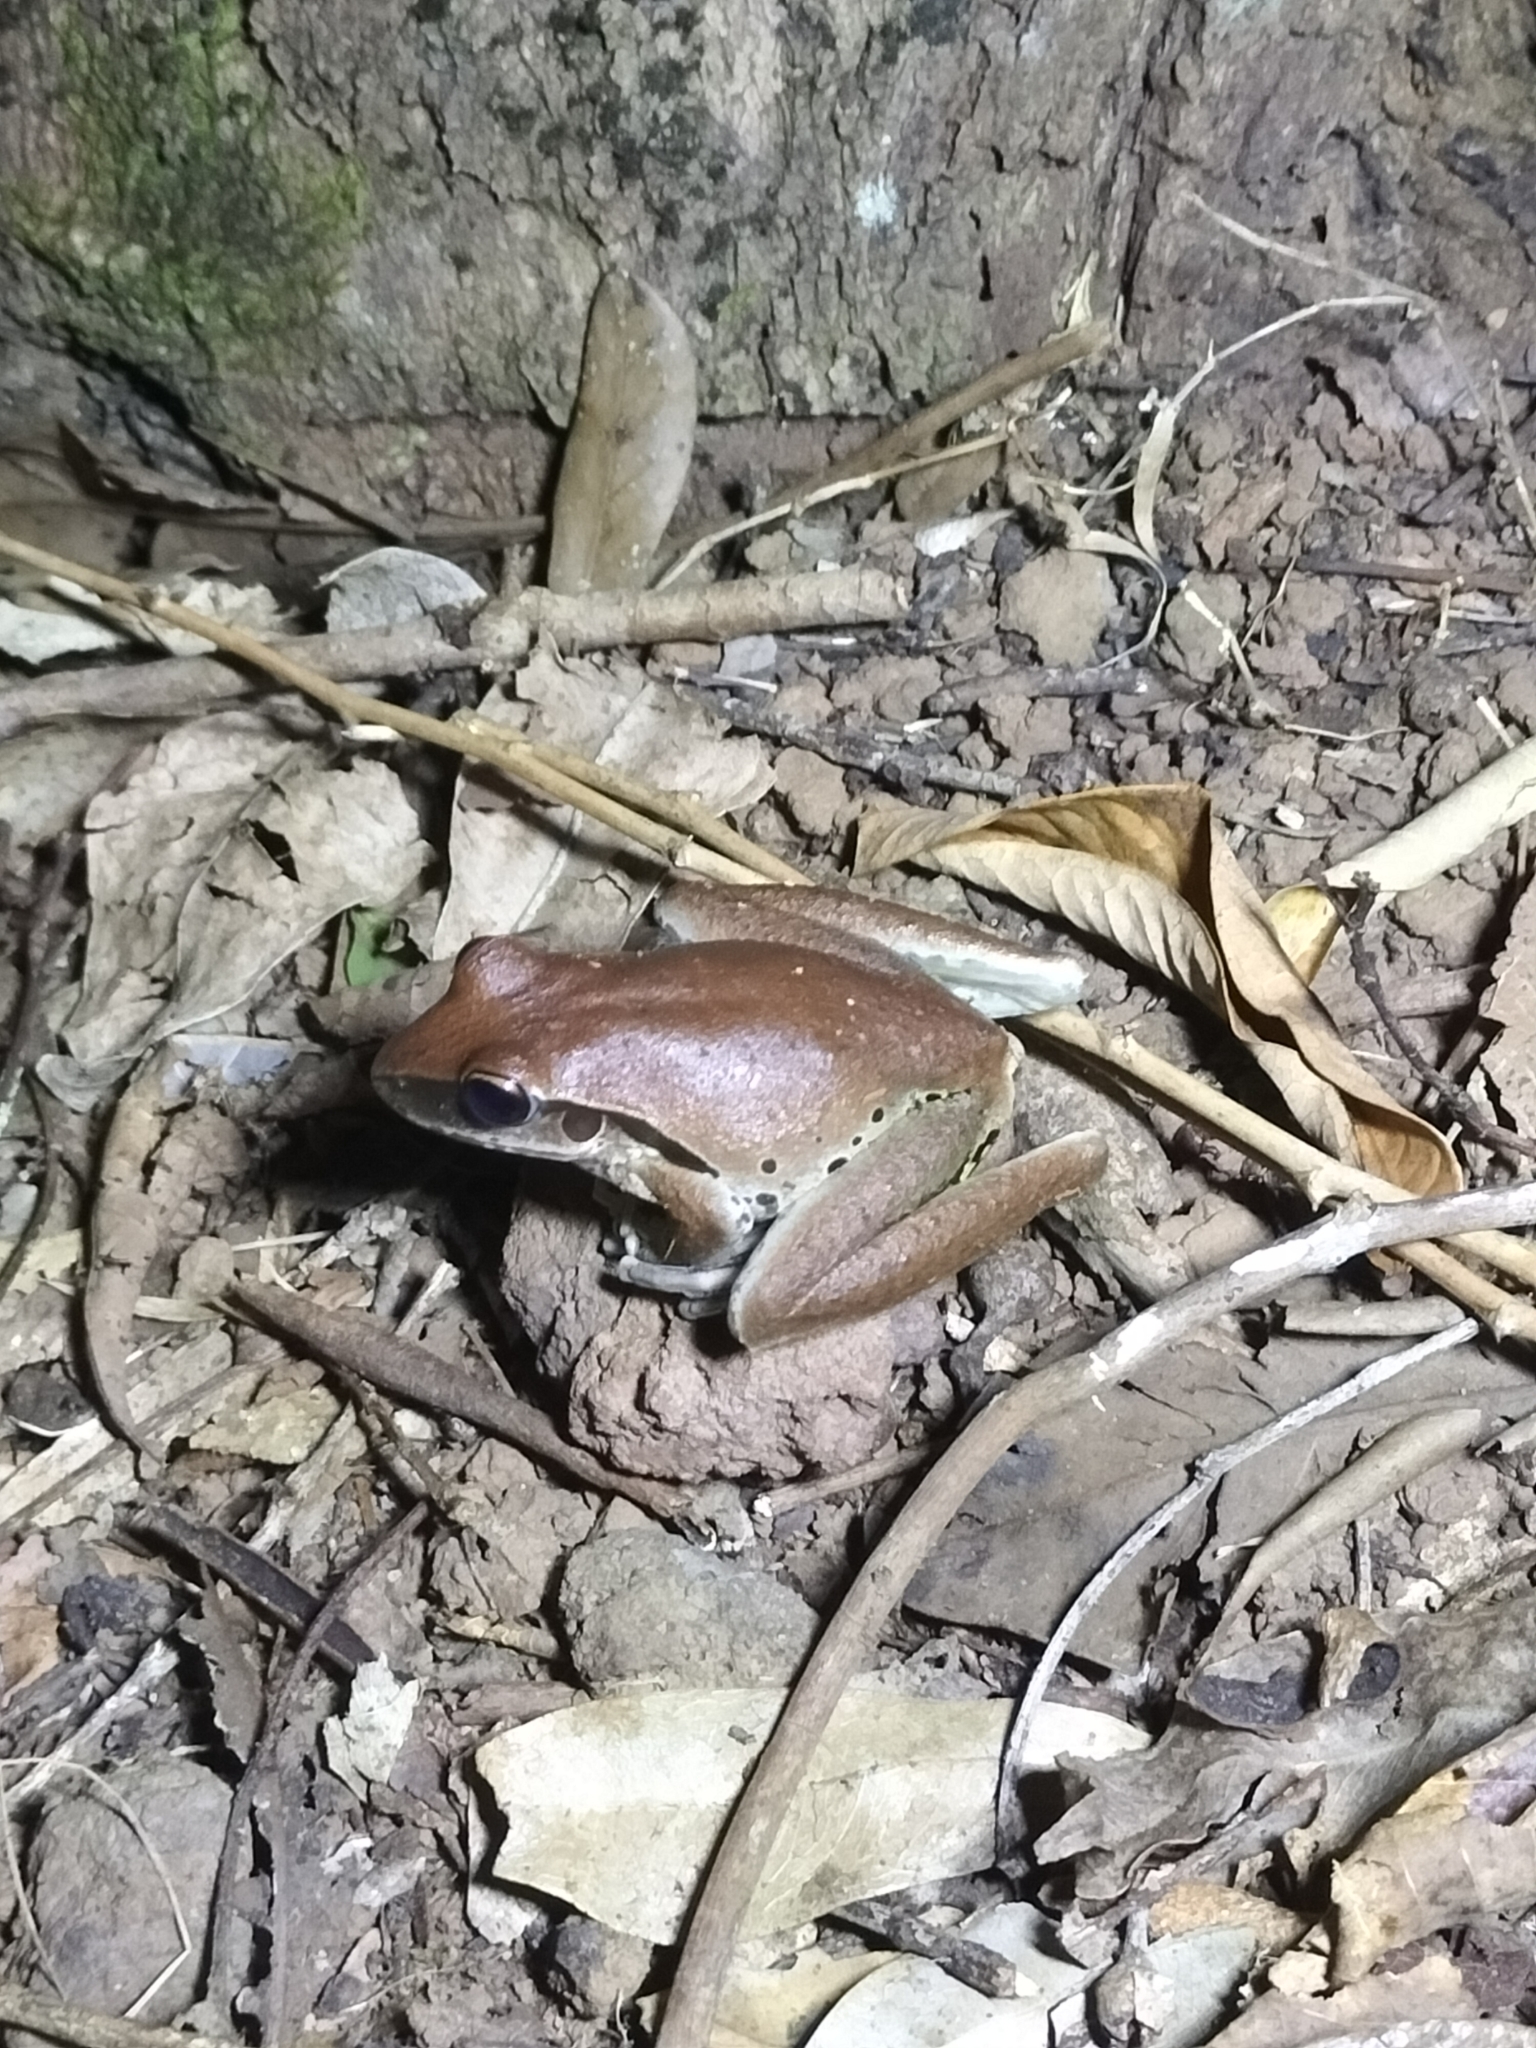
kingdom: Animalia
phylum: Chordata
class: Amphibia
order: Anura
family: Hylidae
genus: Ranoidea
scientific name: Ranoidea
